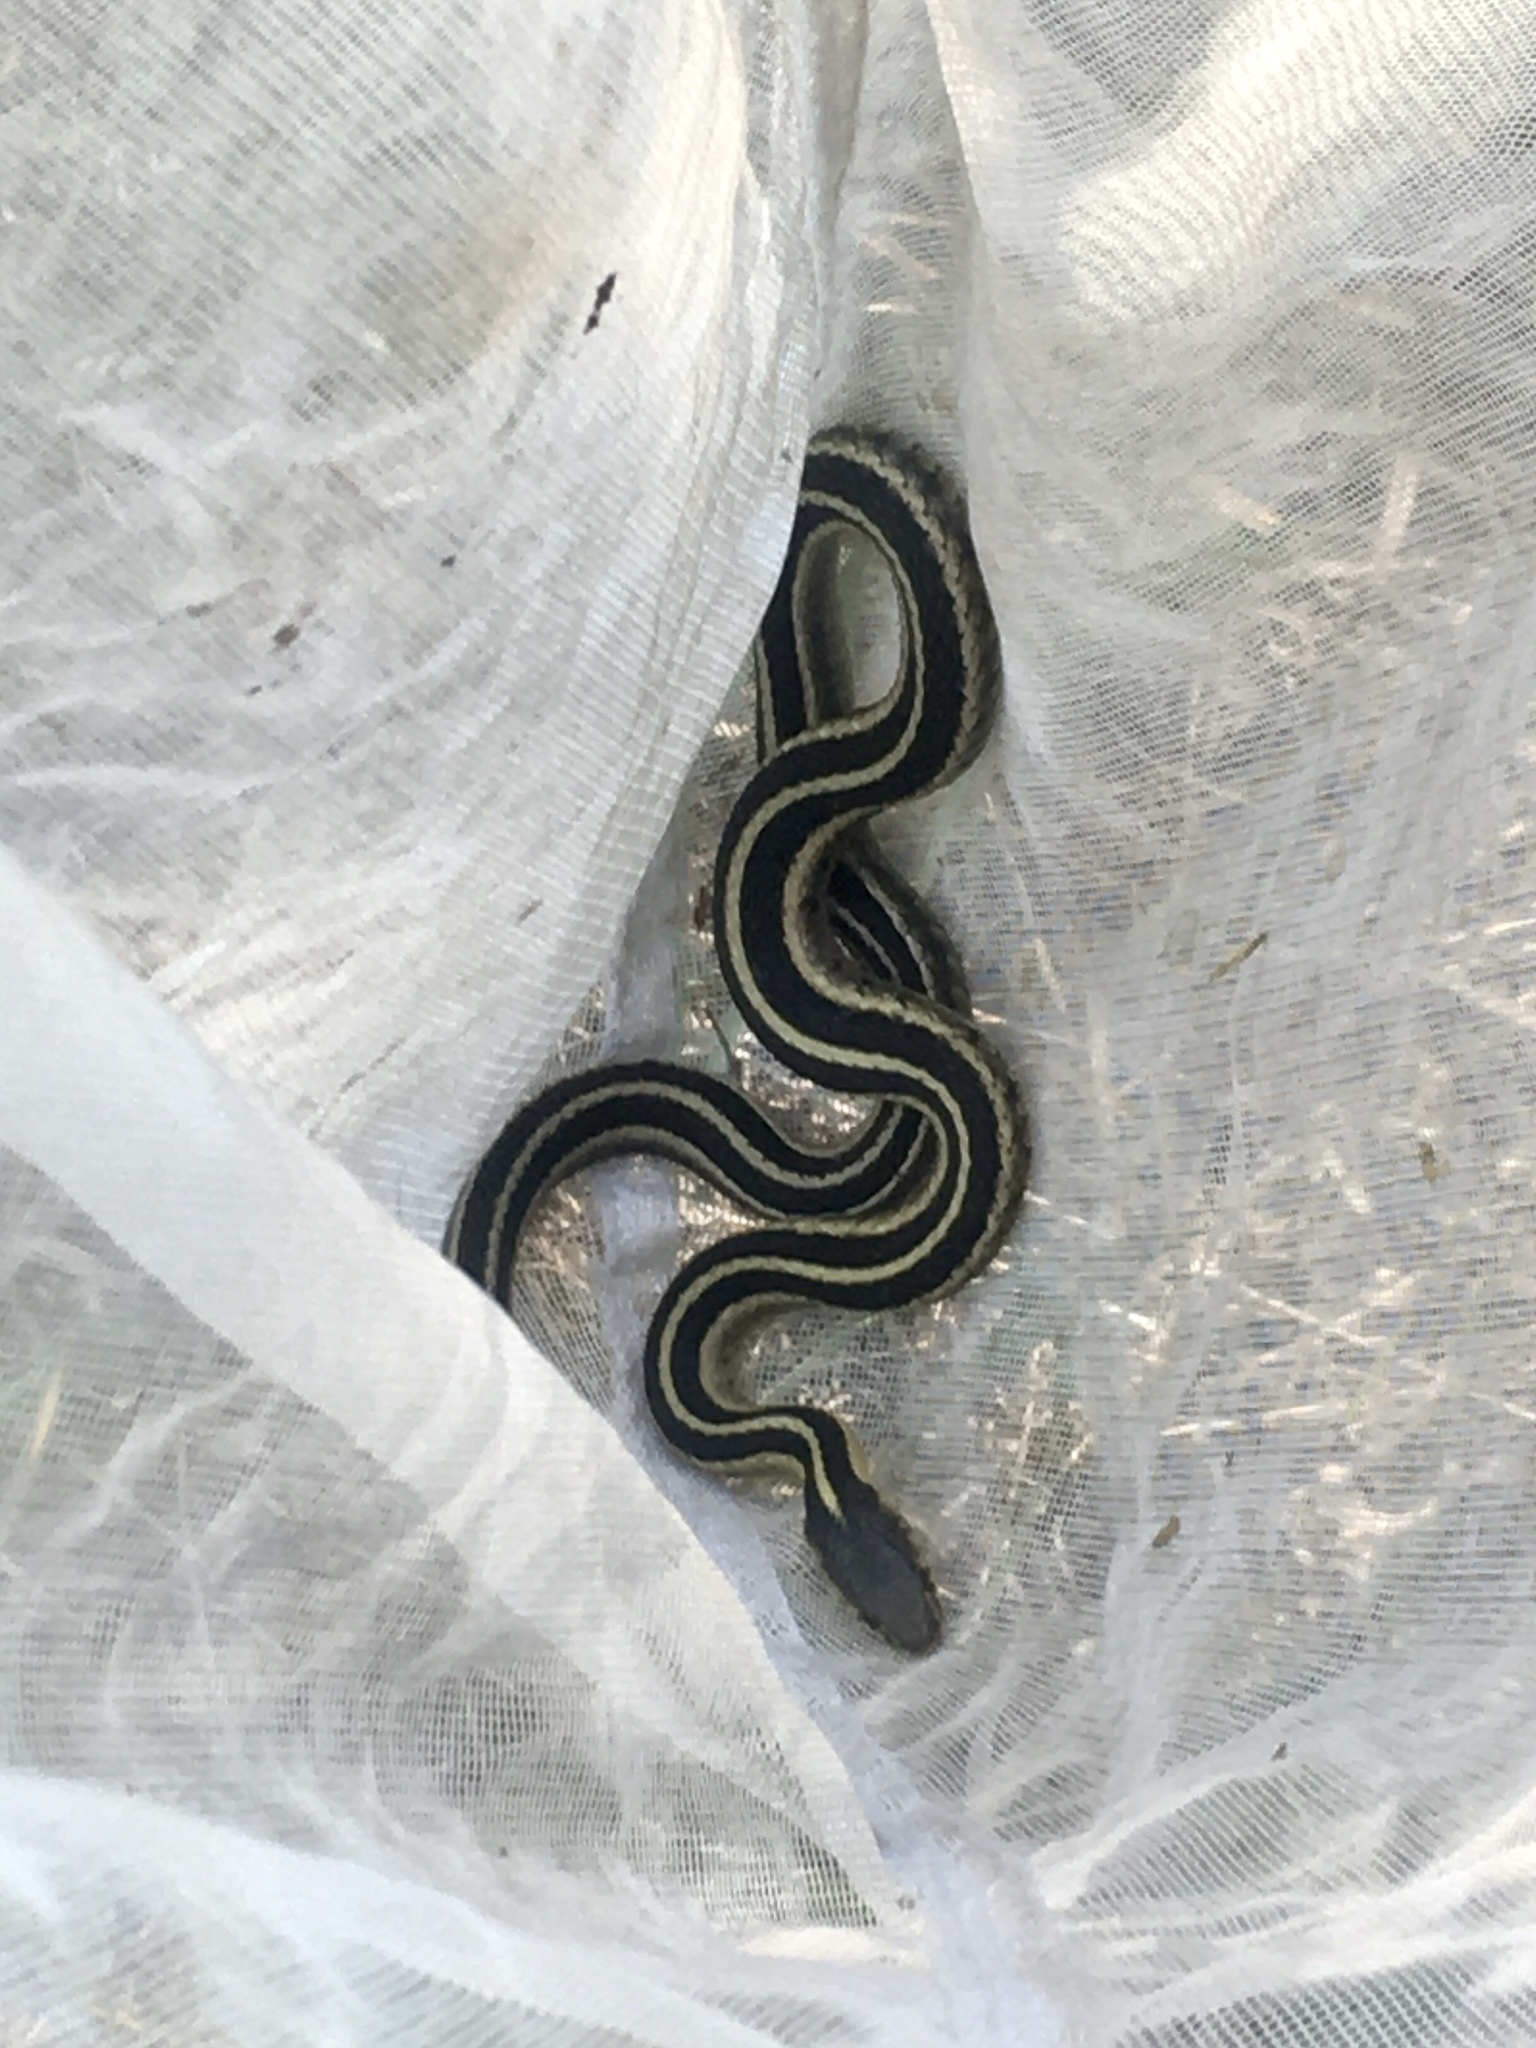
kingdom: Animalia
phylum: Chordata
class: Squamata
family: Colubridae
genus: Thamnophis
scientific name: Thamnophis sirtalis
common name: Common garter snake
